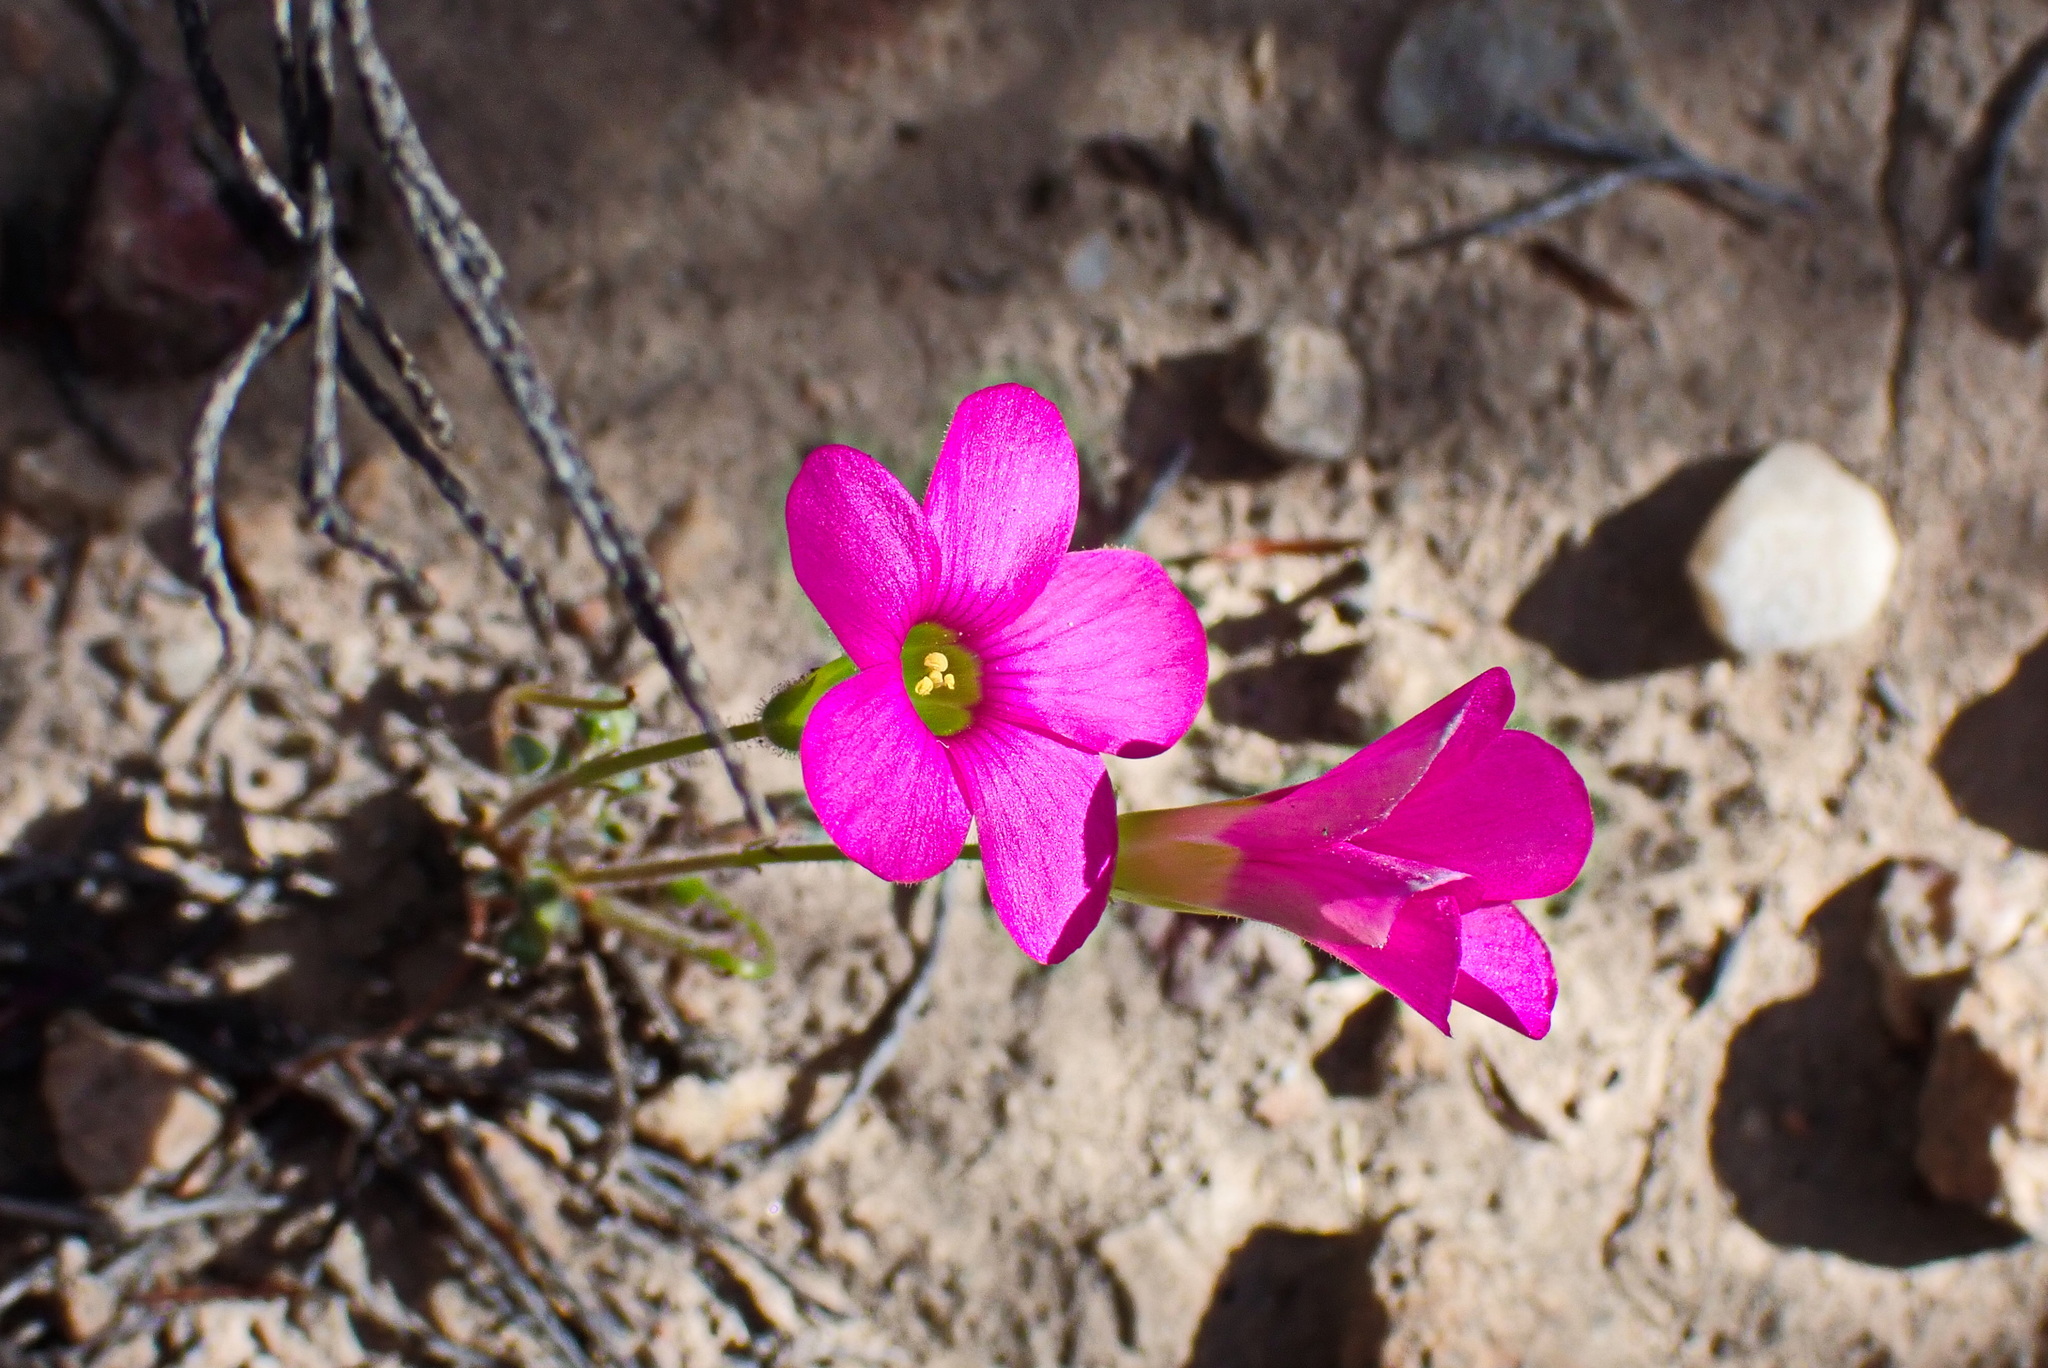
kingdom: Plantae
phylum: Tracheophyta
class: Magnoliopsida
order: Oxalidales
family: Oxalidaceae
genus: Oxalis
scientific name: Oxalis imbricata
